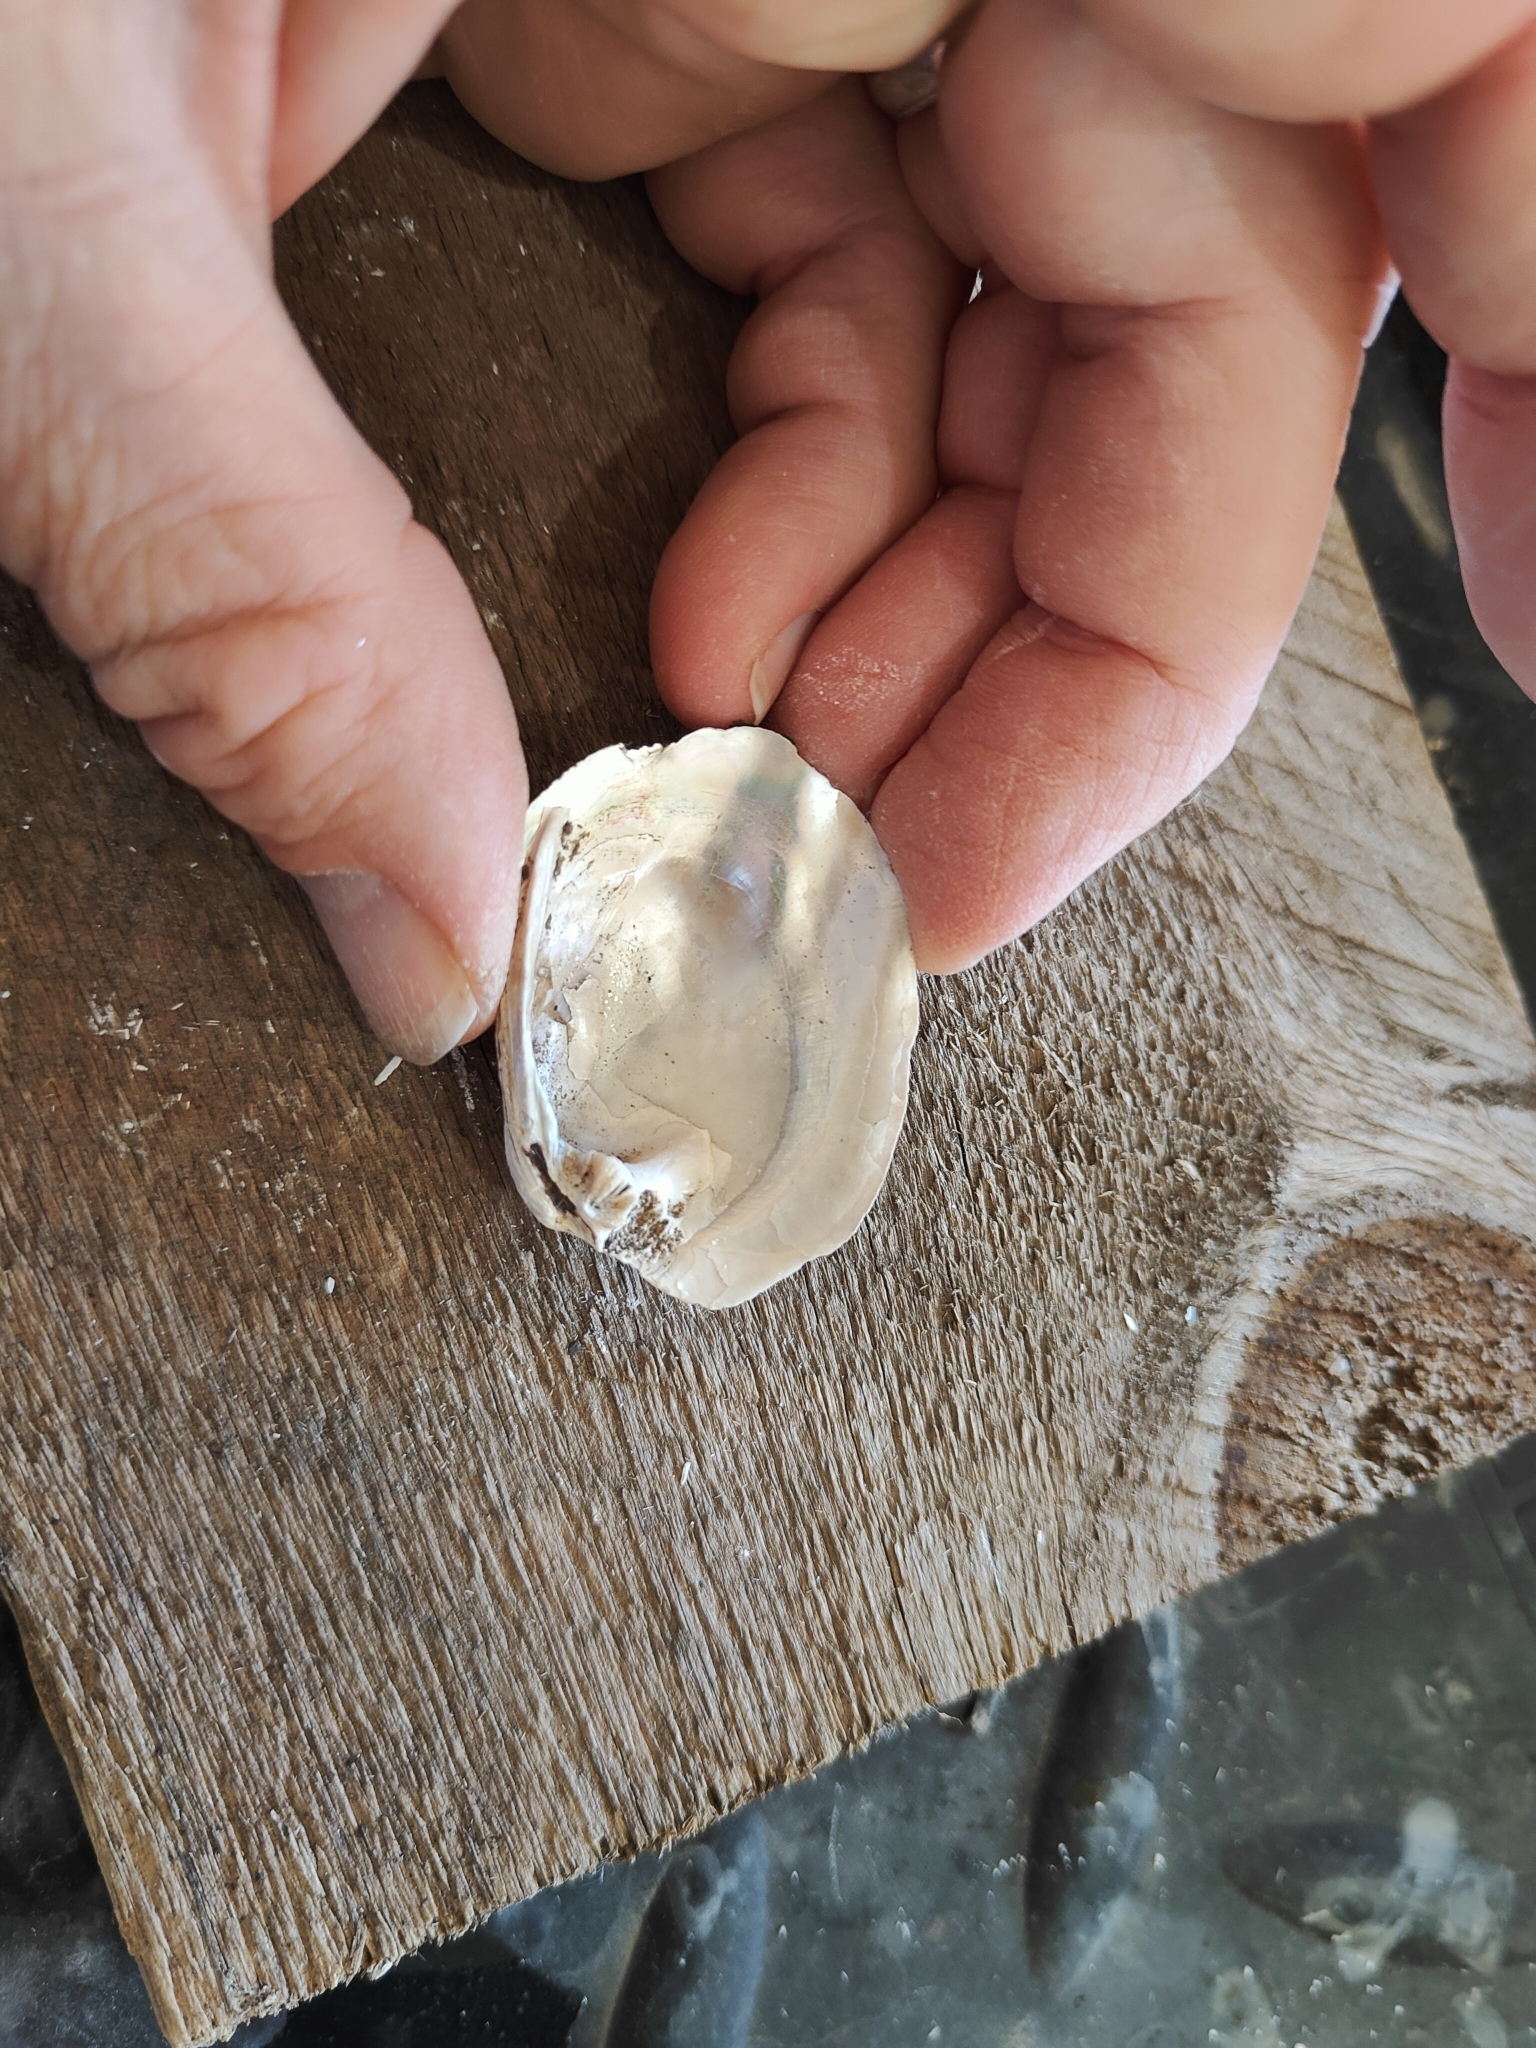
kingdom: Animalia
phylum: Mollusca
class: Bivalvia
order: Unionida
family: Unionidae
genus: Amblema
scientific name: Amblema plicata
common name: Threeridge
